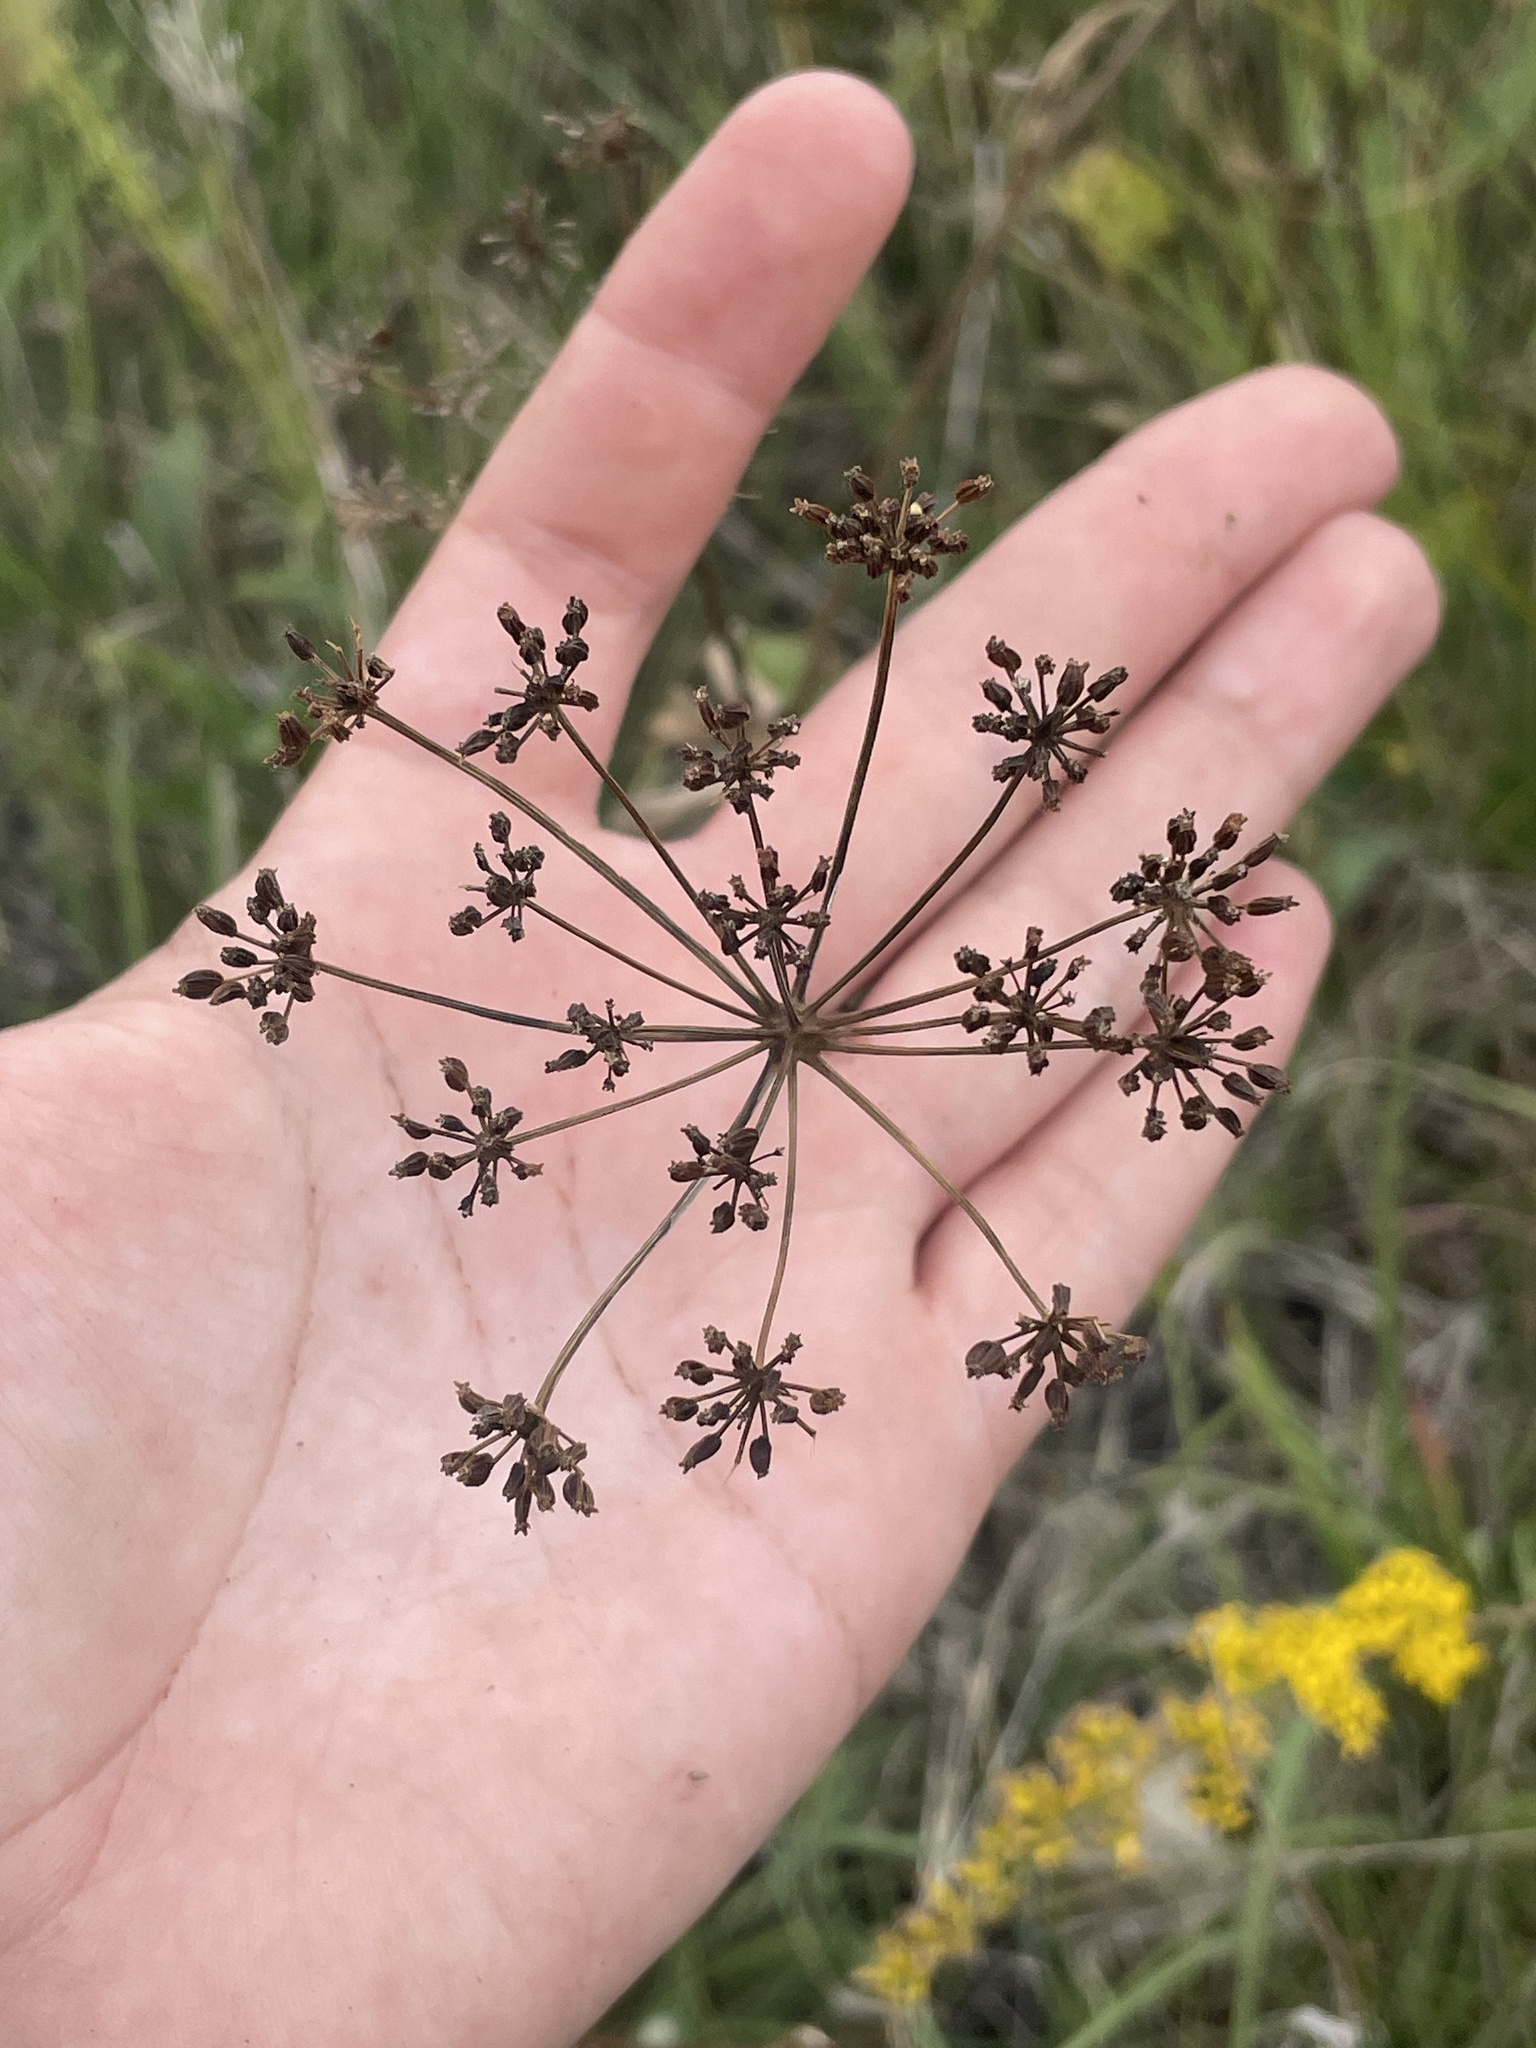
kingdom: Plantae
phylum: Tracheophyta
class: Magnoliopsida
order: Apiales
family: Apiaceae
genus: Zizia
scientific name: Zizia aptera
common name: Heart-leaved alexanders
